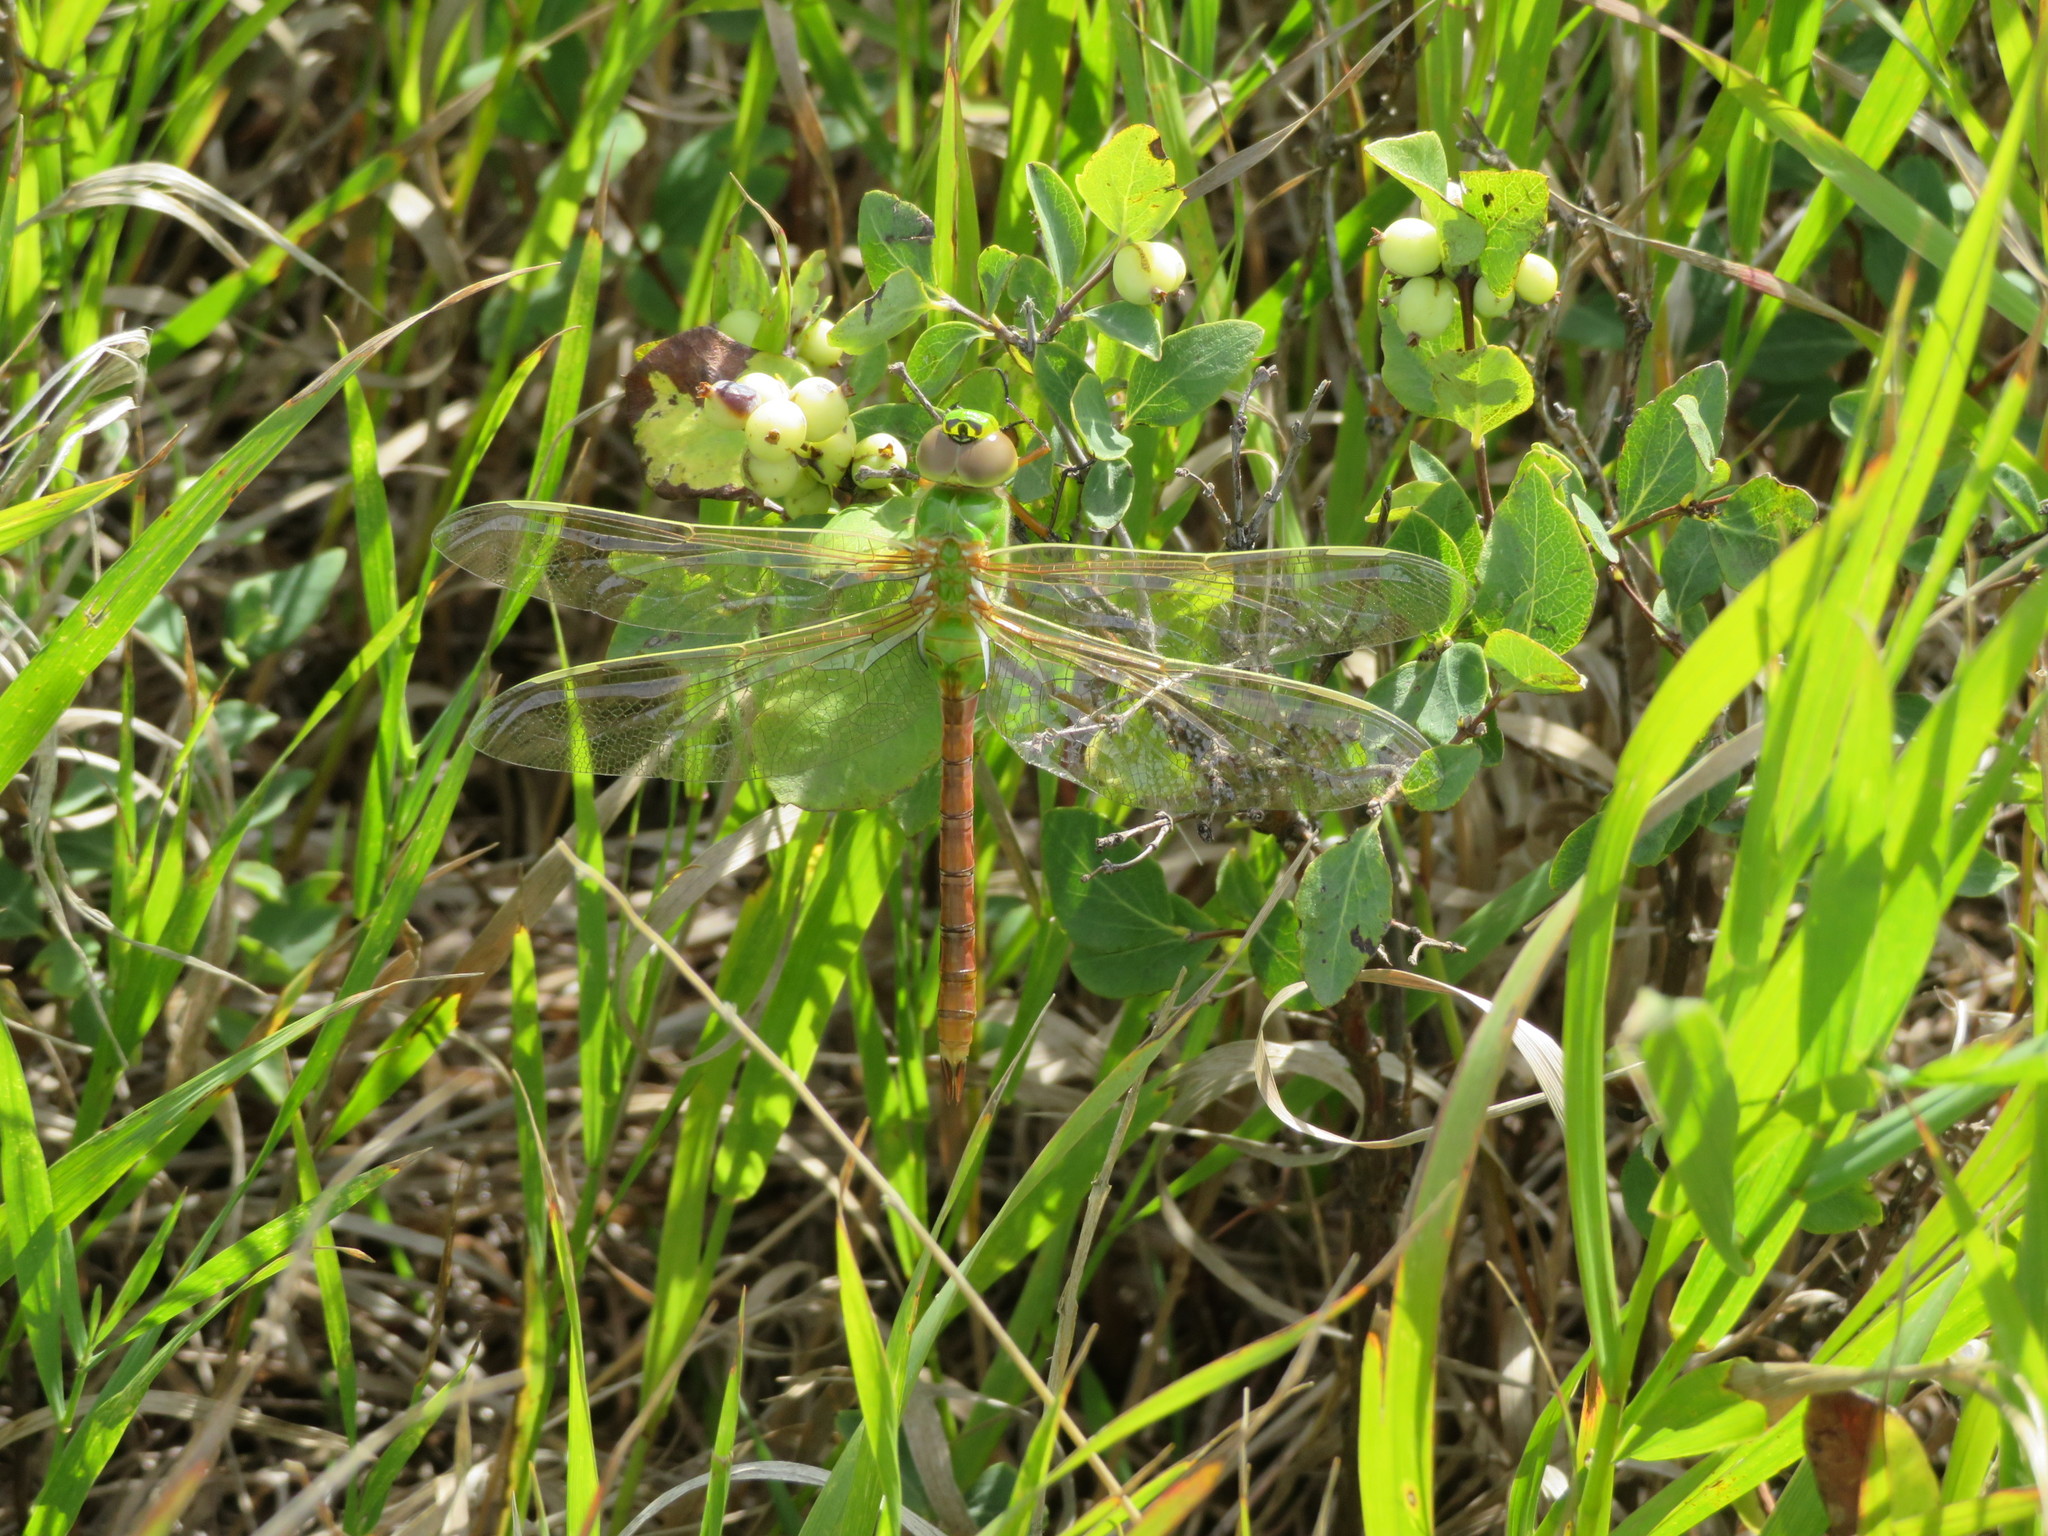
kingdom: Animalia
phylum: Arthropoda
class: Insecta
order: Odonata
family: Aeshnidae
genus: Anax
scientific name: Anax junius
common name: Common green darner
